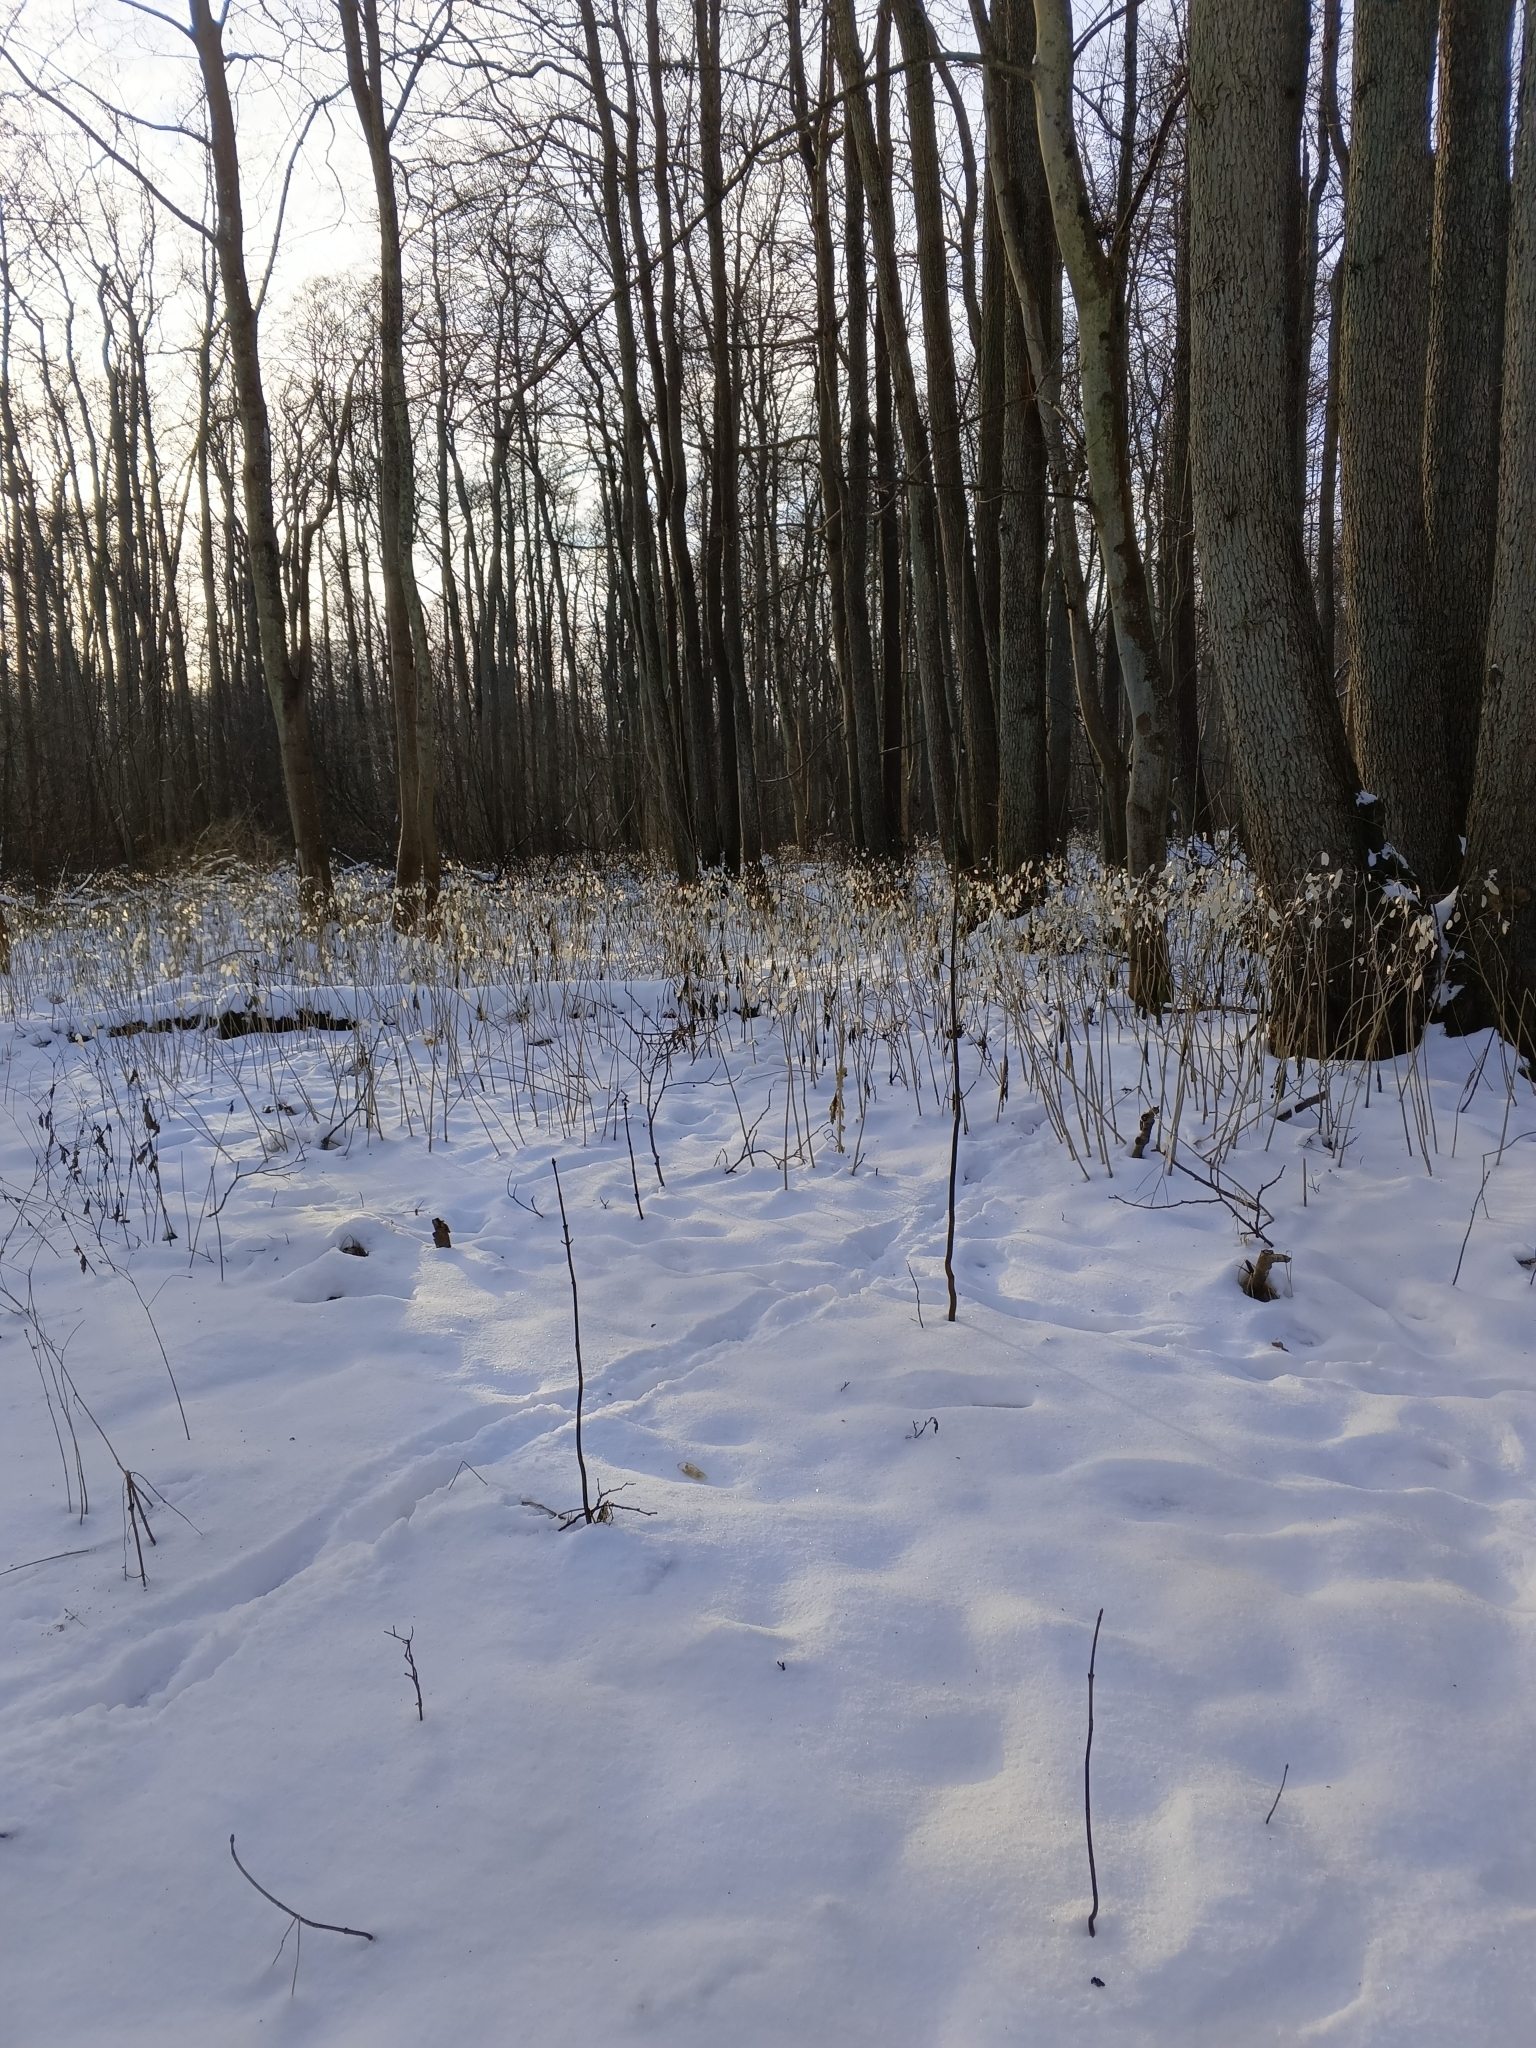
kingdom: Plantae
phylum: Tracheophyta
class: Magnoliopsida
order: Brassicales
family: Brassicaceae
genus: Lunaria
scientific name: Lunaria rediviva
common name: Perennial honesty
